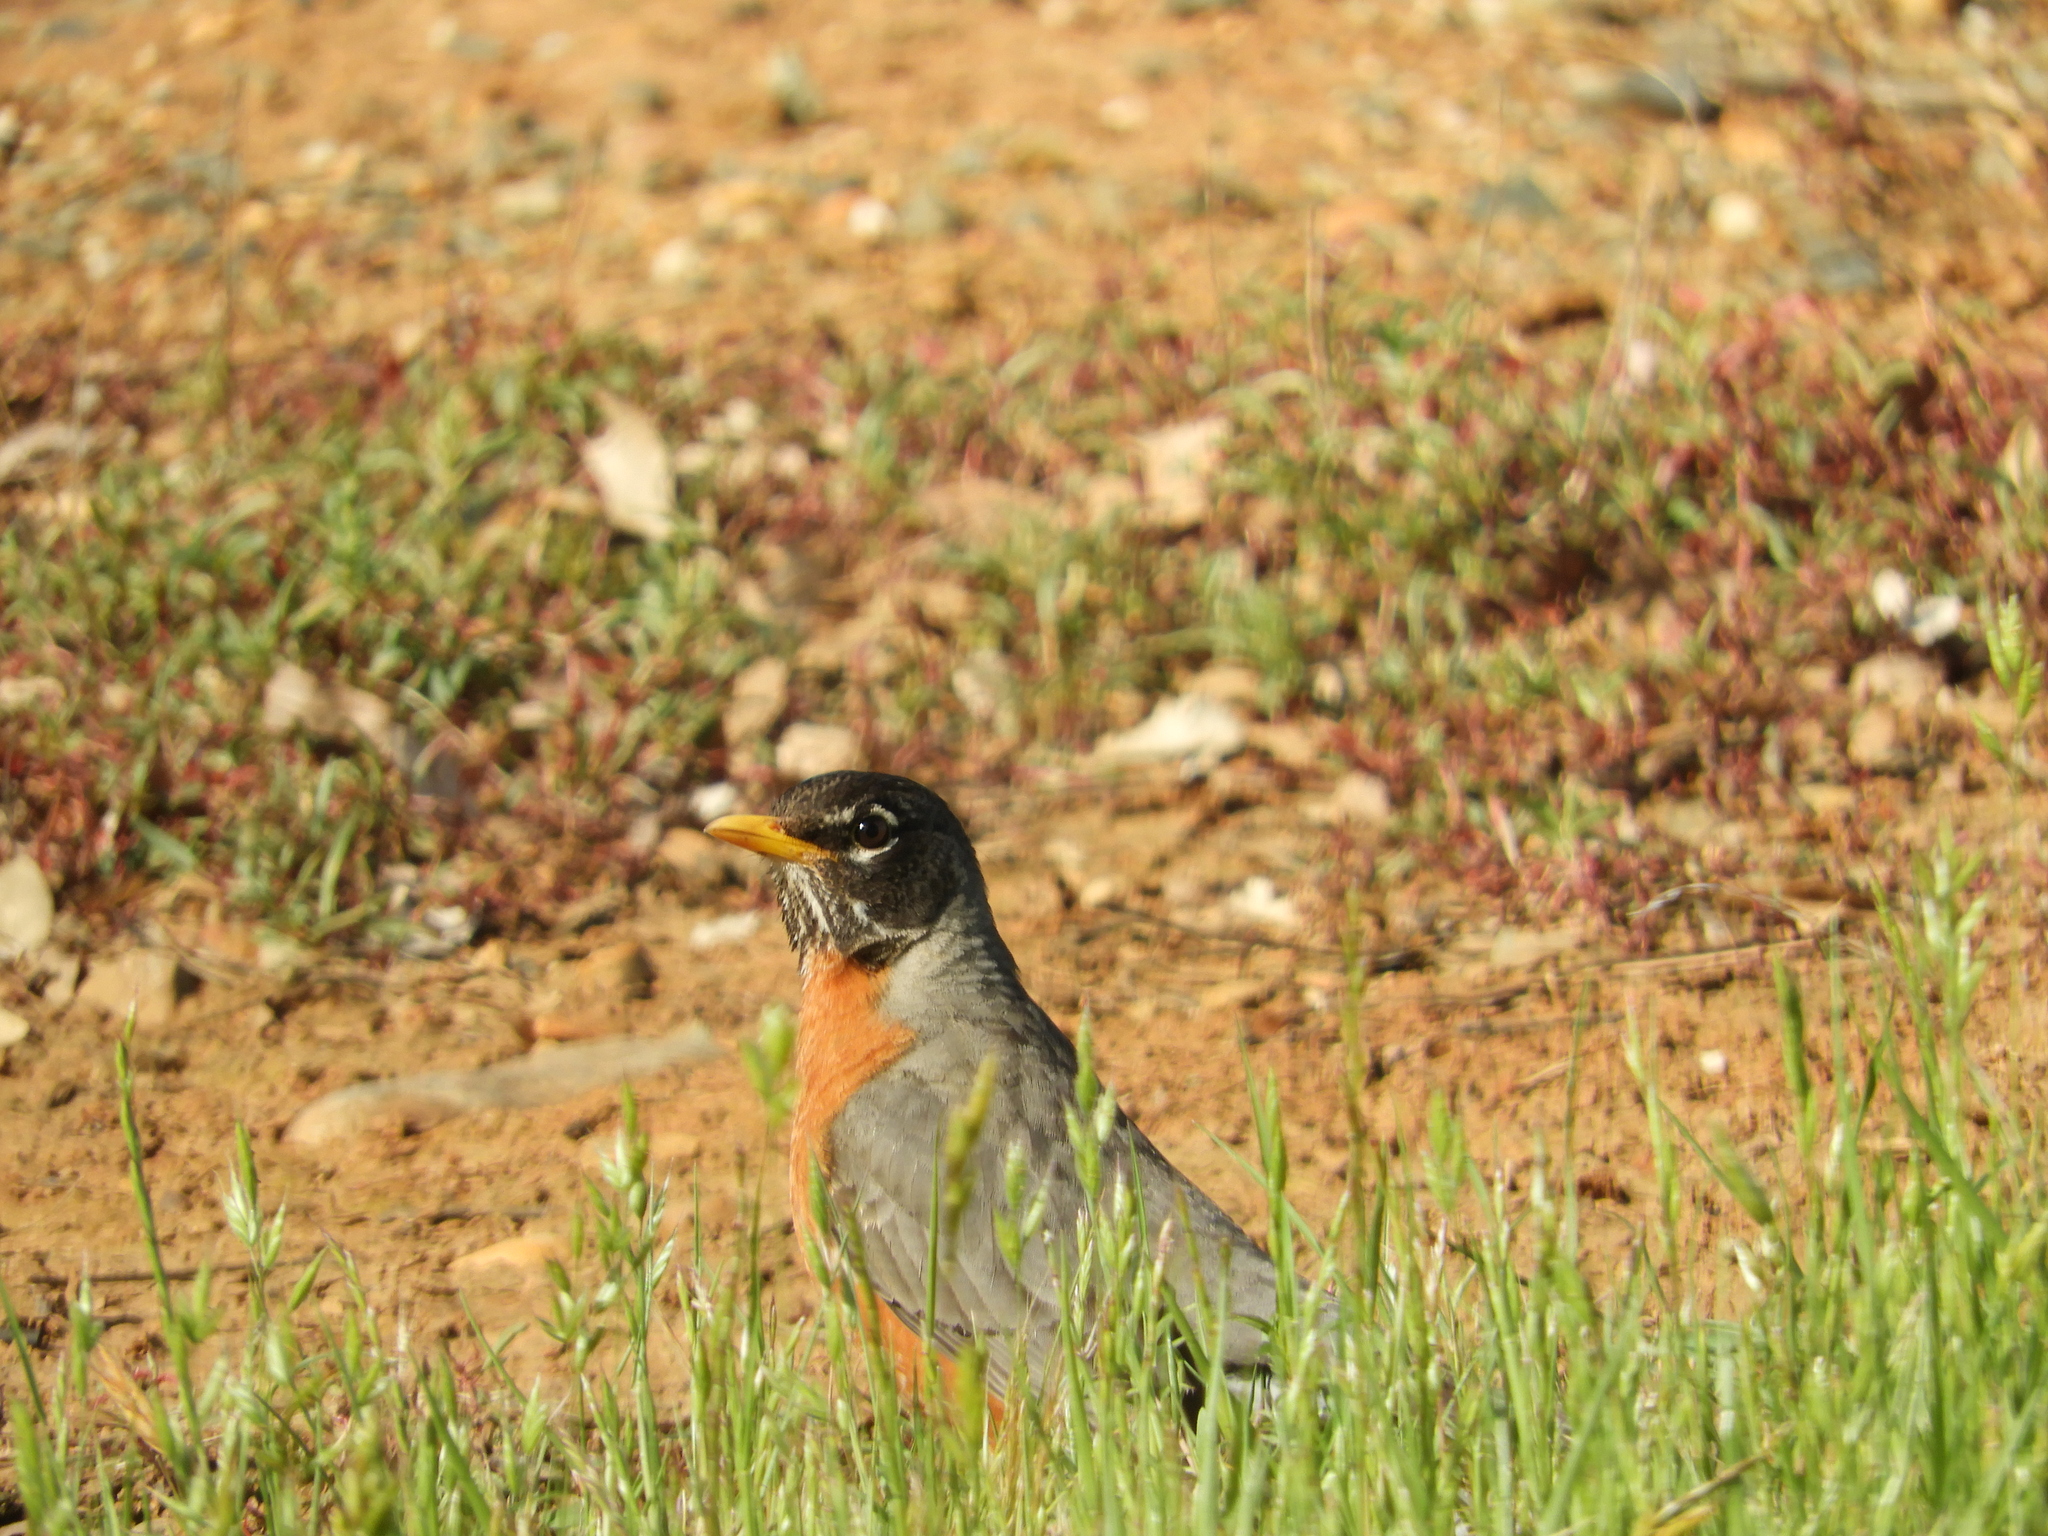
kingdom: Animalia
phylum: Chordata
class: Aves
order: Passeriformes
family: Turdidae
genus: Turdus
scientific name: Turdus migratorius
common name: American robin
